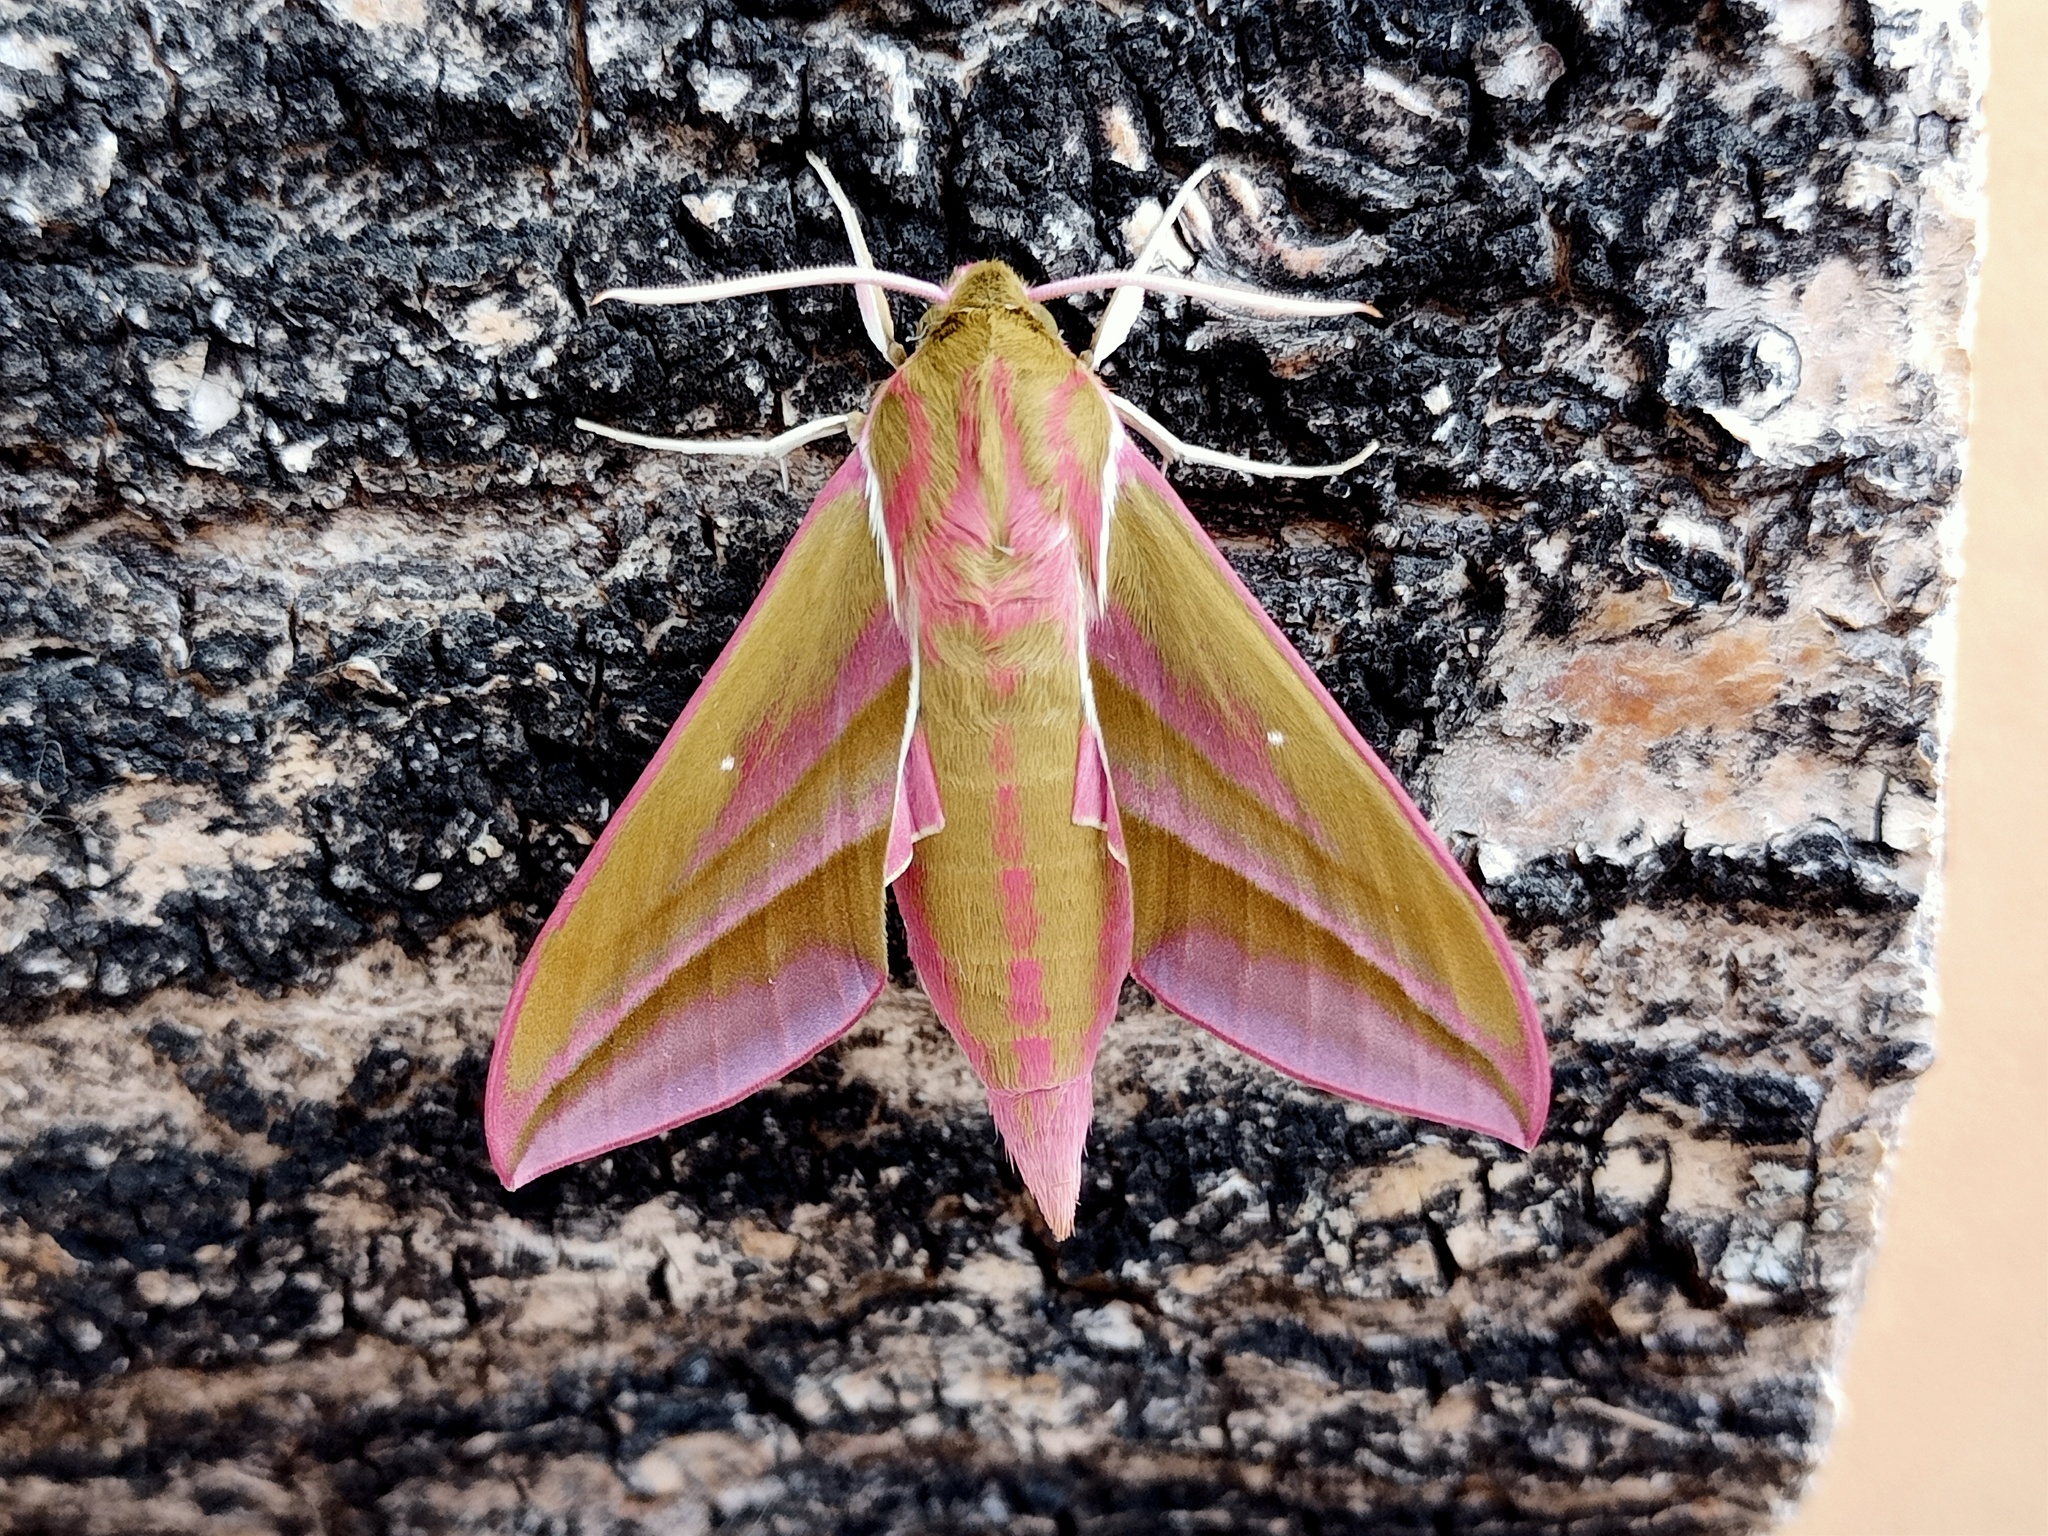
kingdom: Animalia
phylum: Arthropoda
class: Insecta
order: Lepidoptera
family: Sphingidae
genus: Deilephila
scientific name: Deilephila elpenor
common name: Elephant hawk-moth
